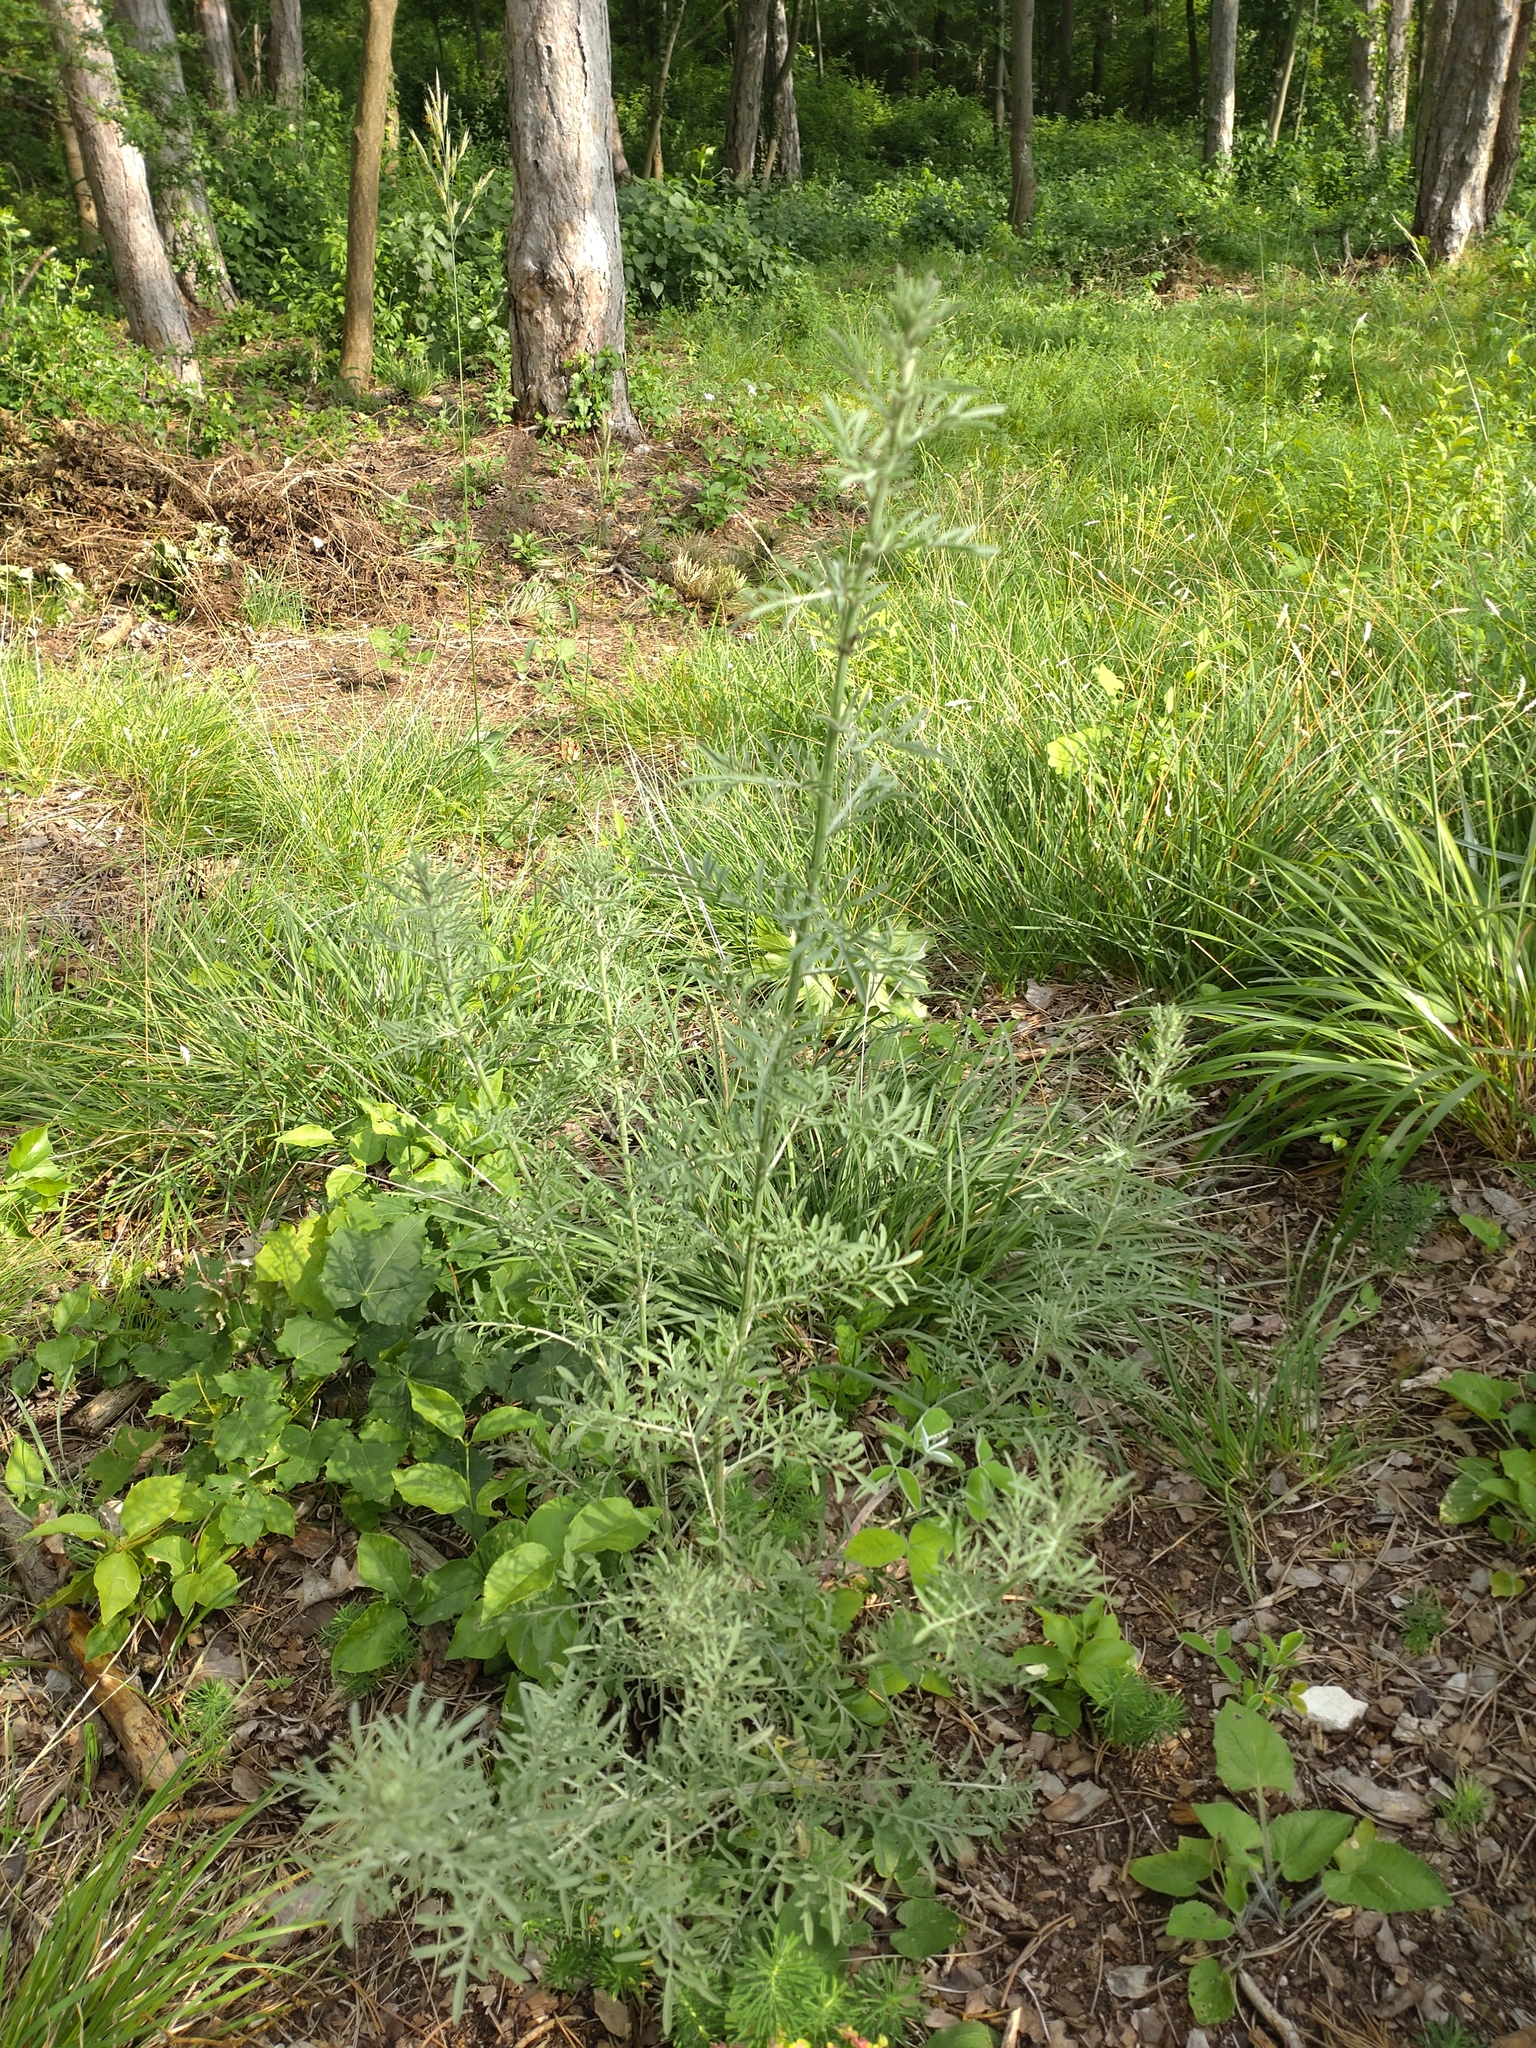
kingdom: Plantae
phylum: Tracheophyta
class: Magnoliopsida
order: Asterales
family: Asteraceae
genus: Centaurea
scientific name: Centaurea stoebe
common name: Spotted knapweed
